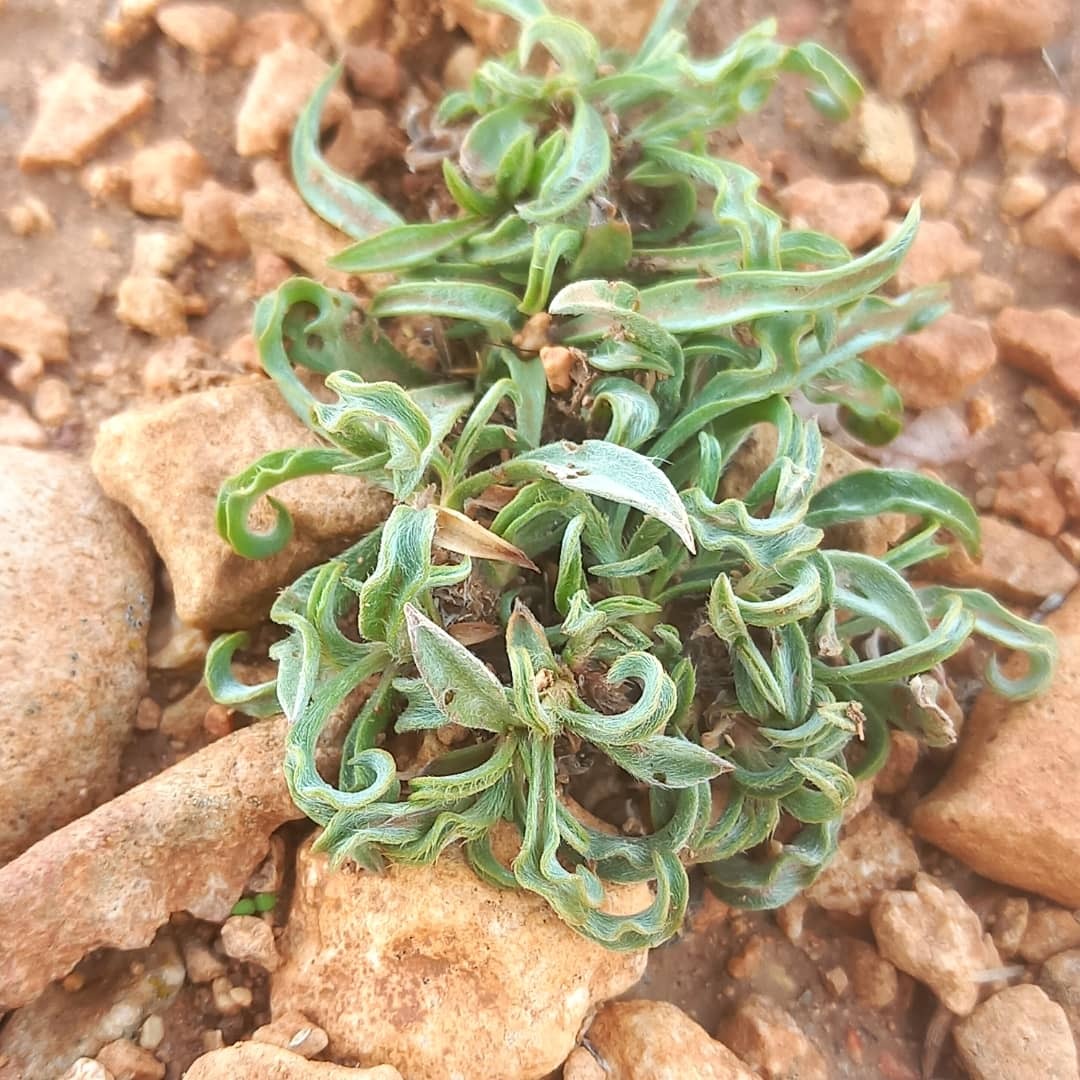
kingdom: Plantae
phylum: Tracheophyta
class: Magnoliopsida
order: Lamiales
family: Plantaginaceae
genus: Plantago
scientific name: Plantago albicans
